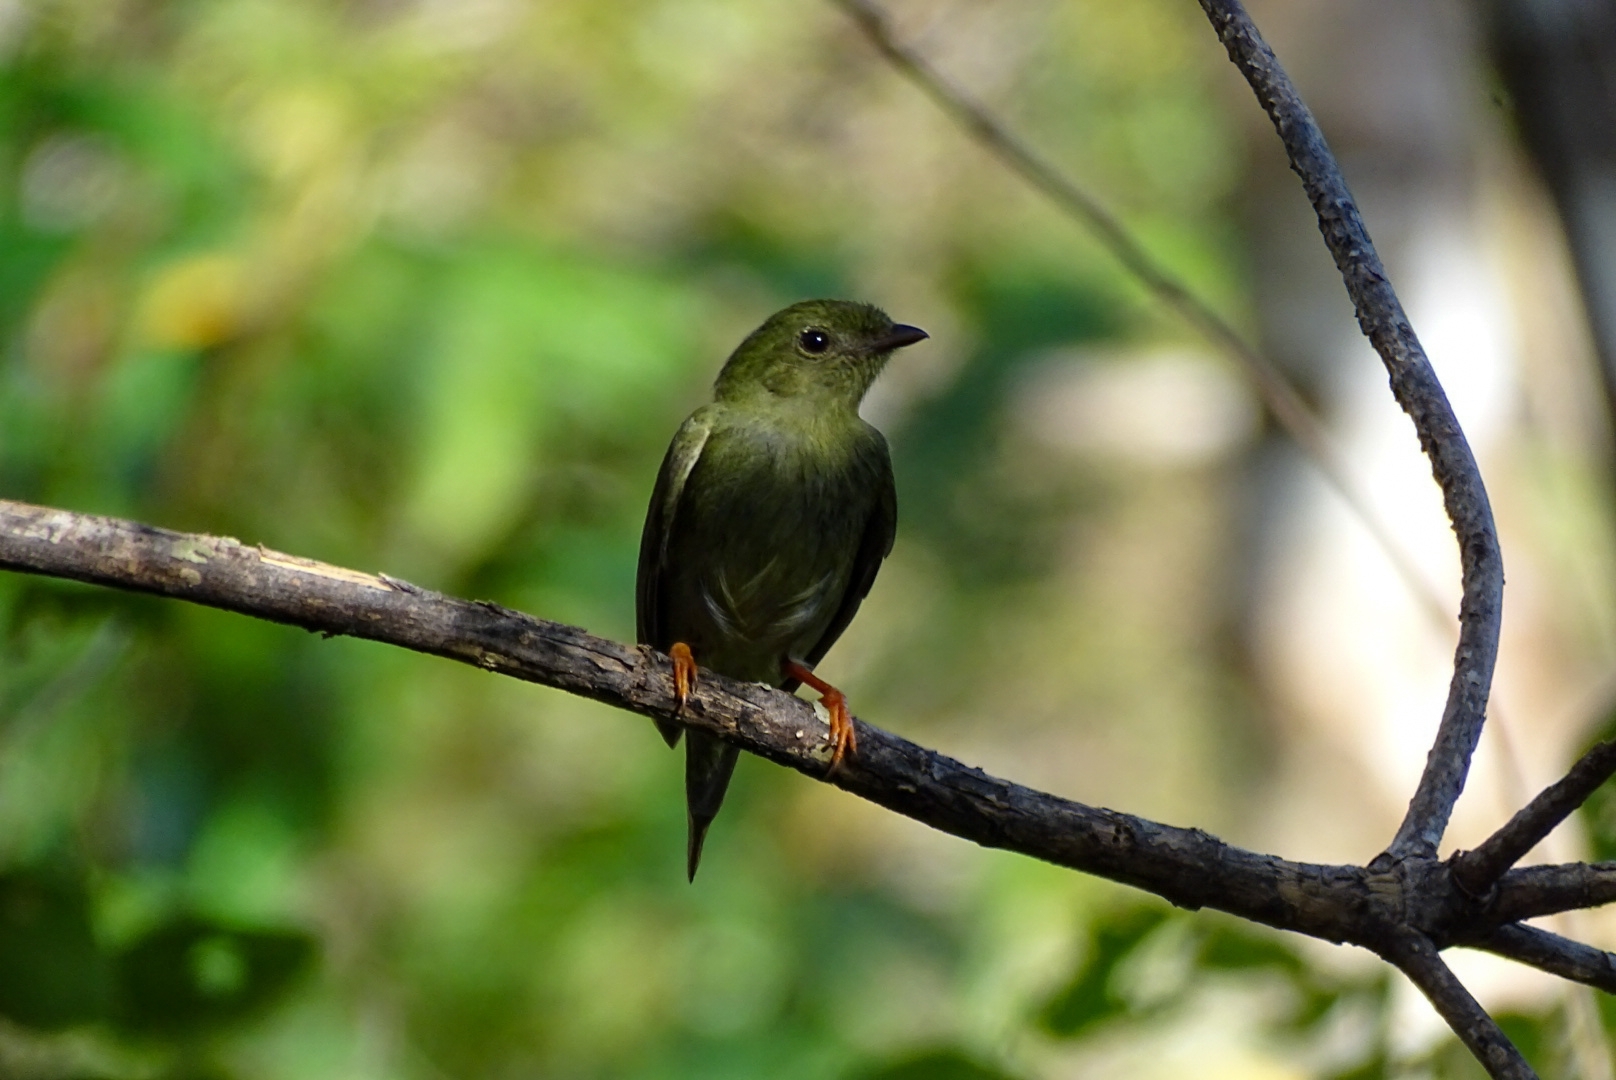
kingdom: Animalia
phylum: Chordata
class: Aves
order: Passeriformes
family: Pipridae
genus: Chiroxiphia
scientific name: Chiroxiphia lanceolata
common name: Lance-tailed manakin
